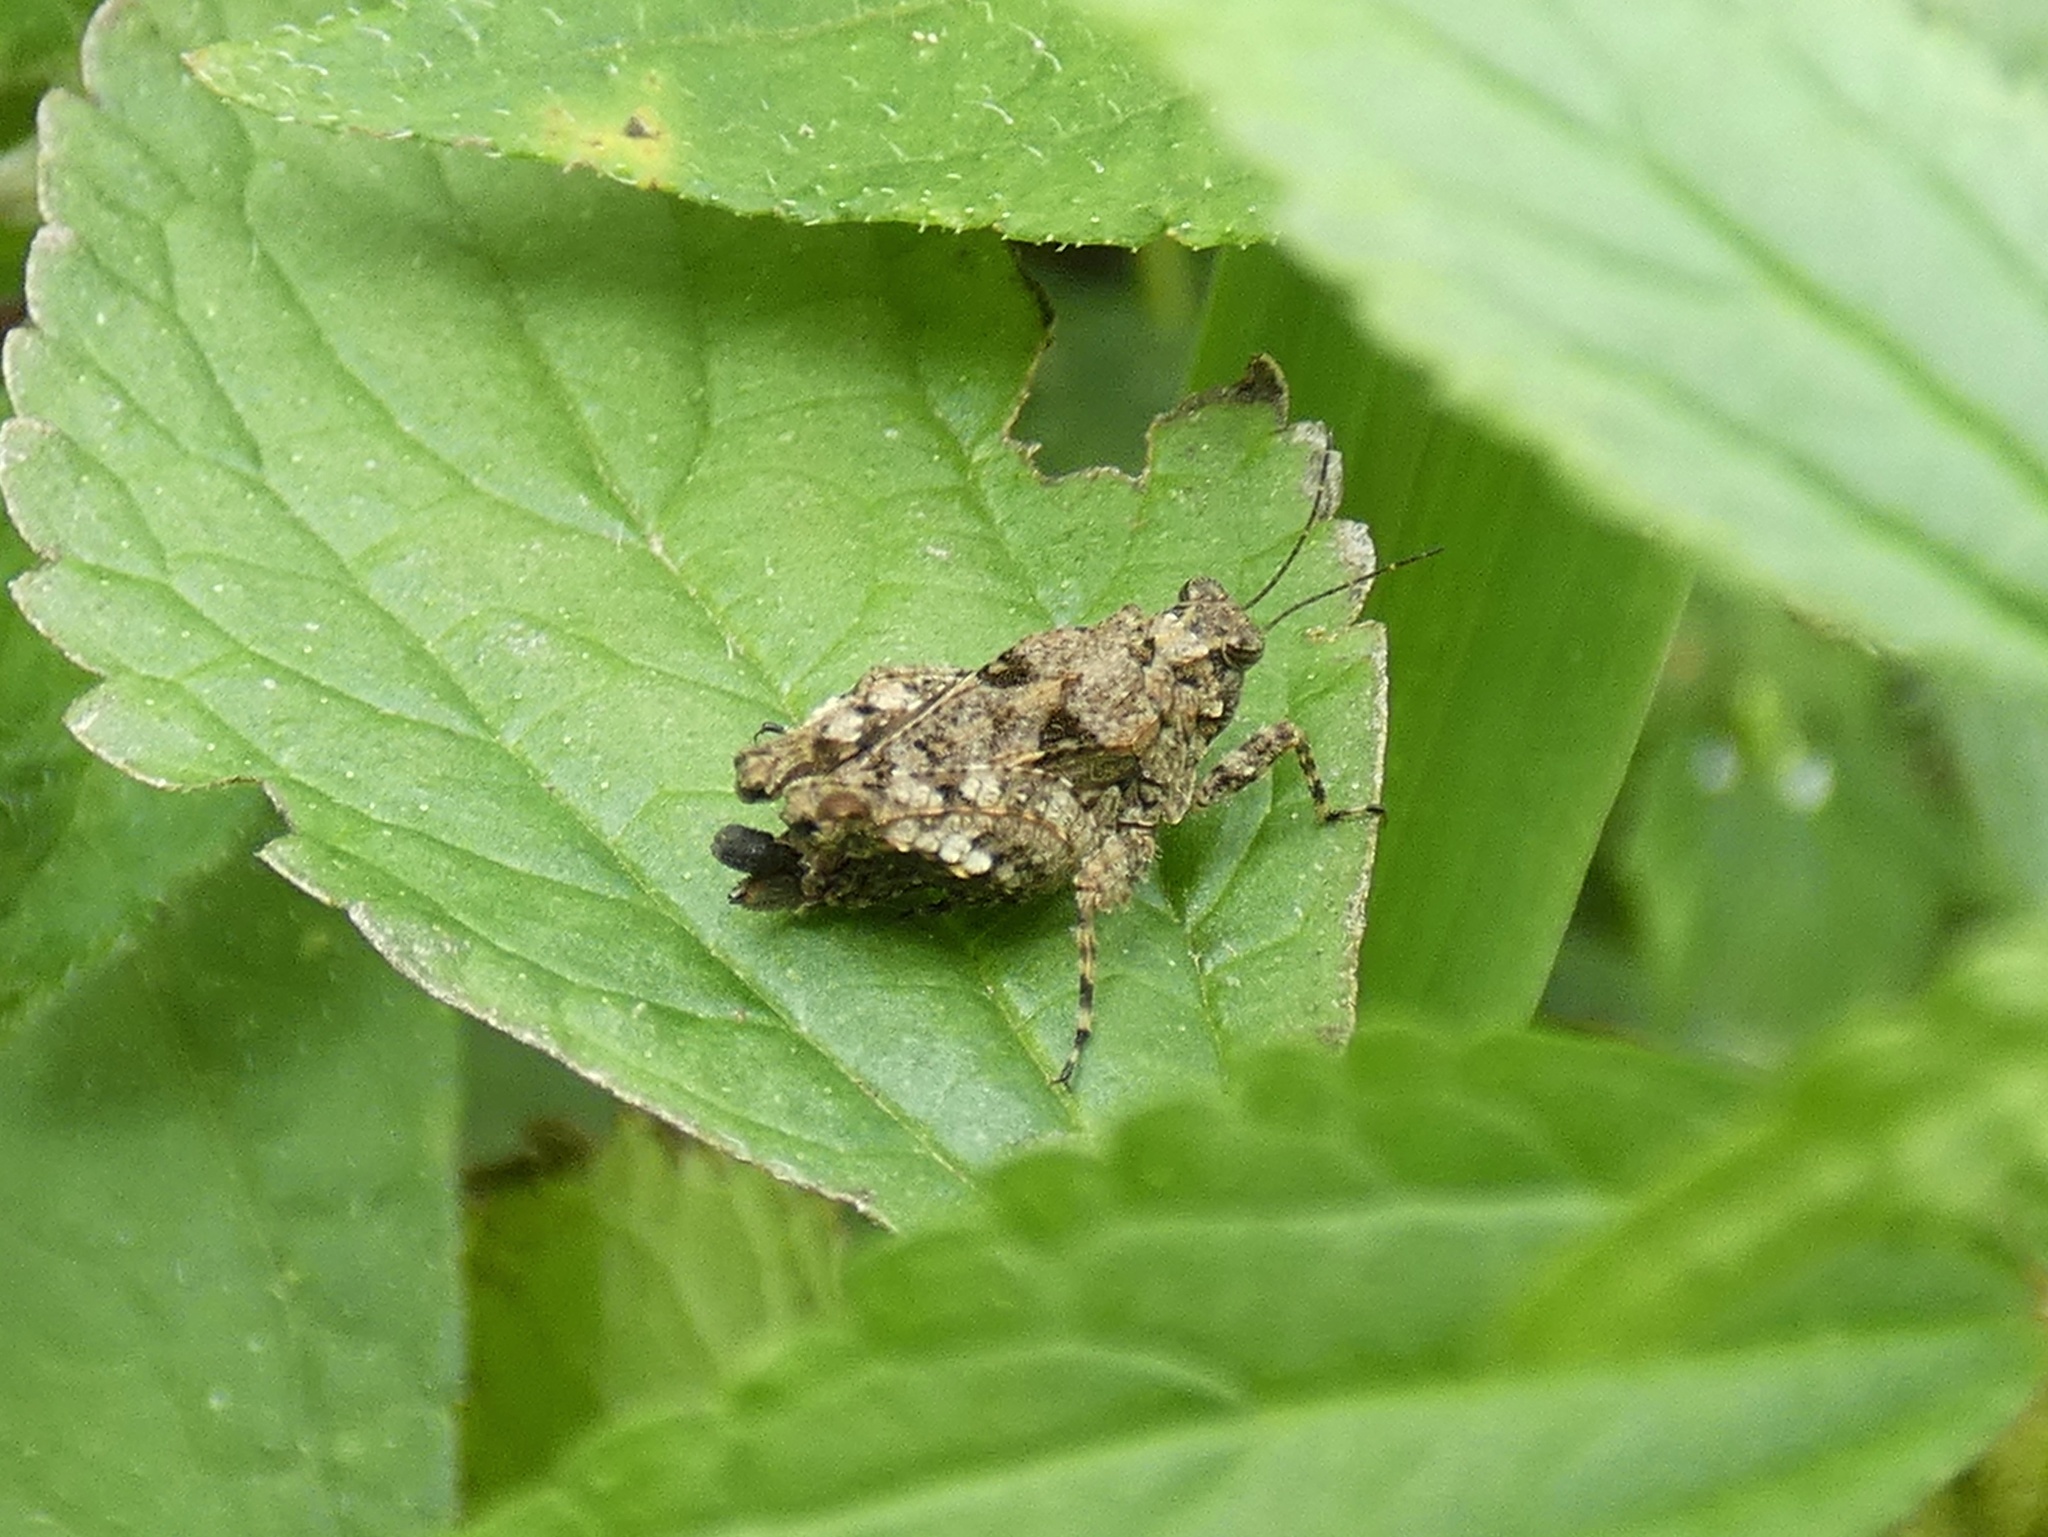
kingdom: Animalia
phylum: Arthropoda
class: Insecta
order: Orthoptera
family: Tetrigidae
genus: Paratettix
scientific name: Paratettix mexicanus
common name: Mexican pygmy grasshopper
